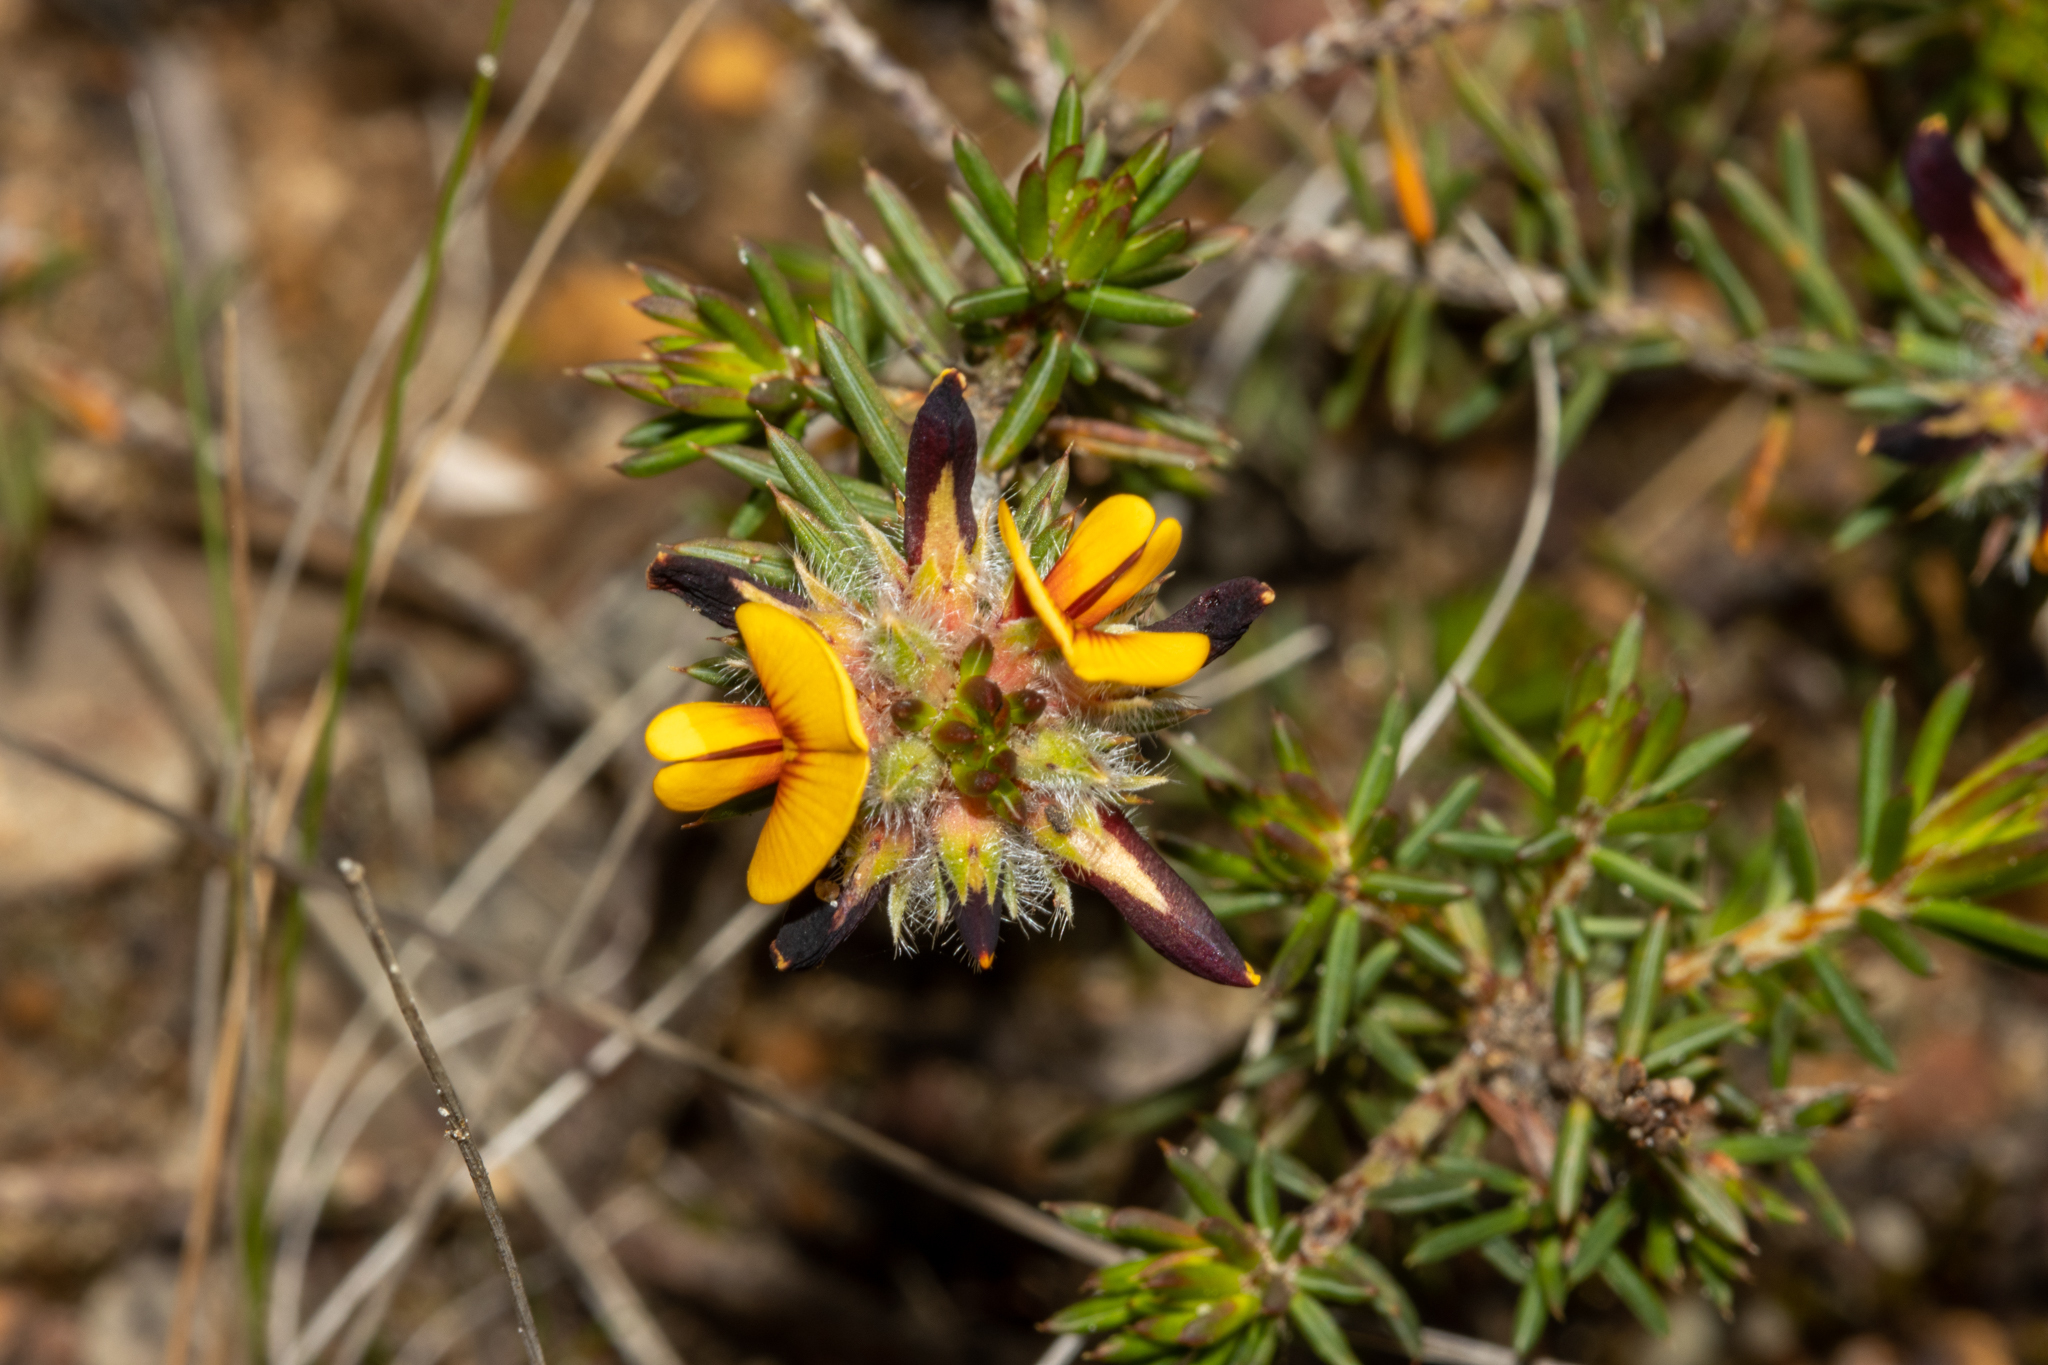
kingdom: Plantae
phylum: Tracheophyta
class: Magnoliopsida
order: Fabales
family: Fabaceae
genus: Pultenaea
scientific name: Pultenaea indira
